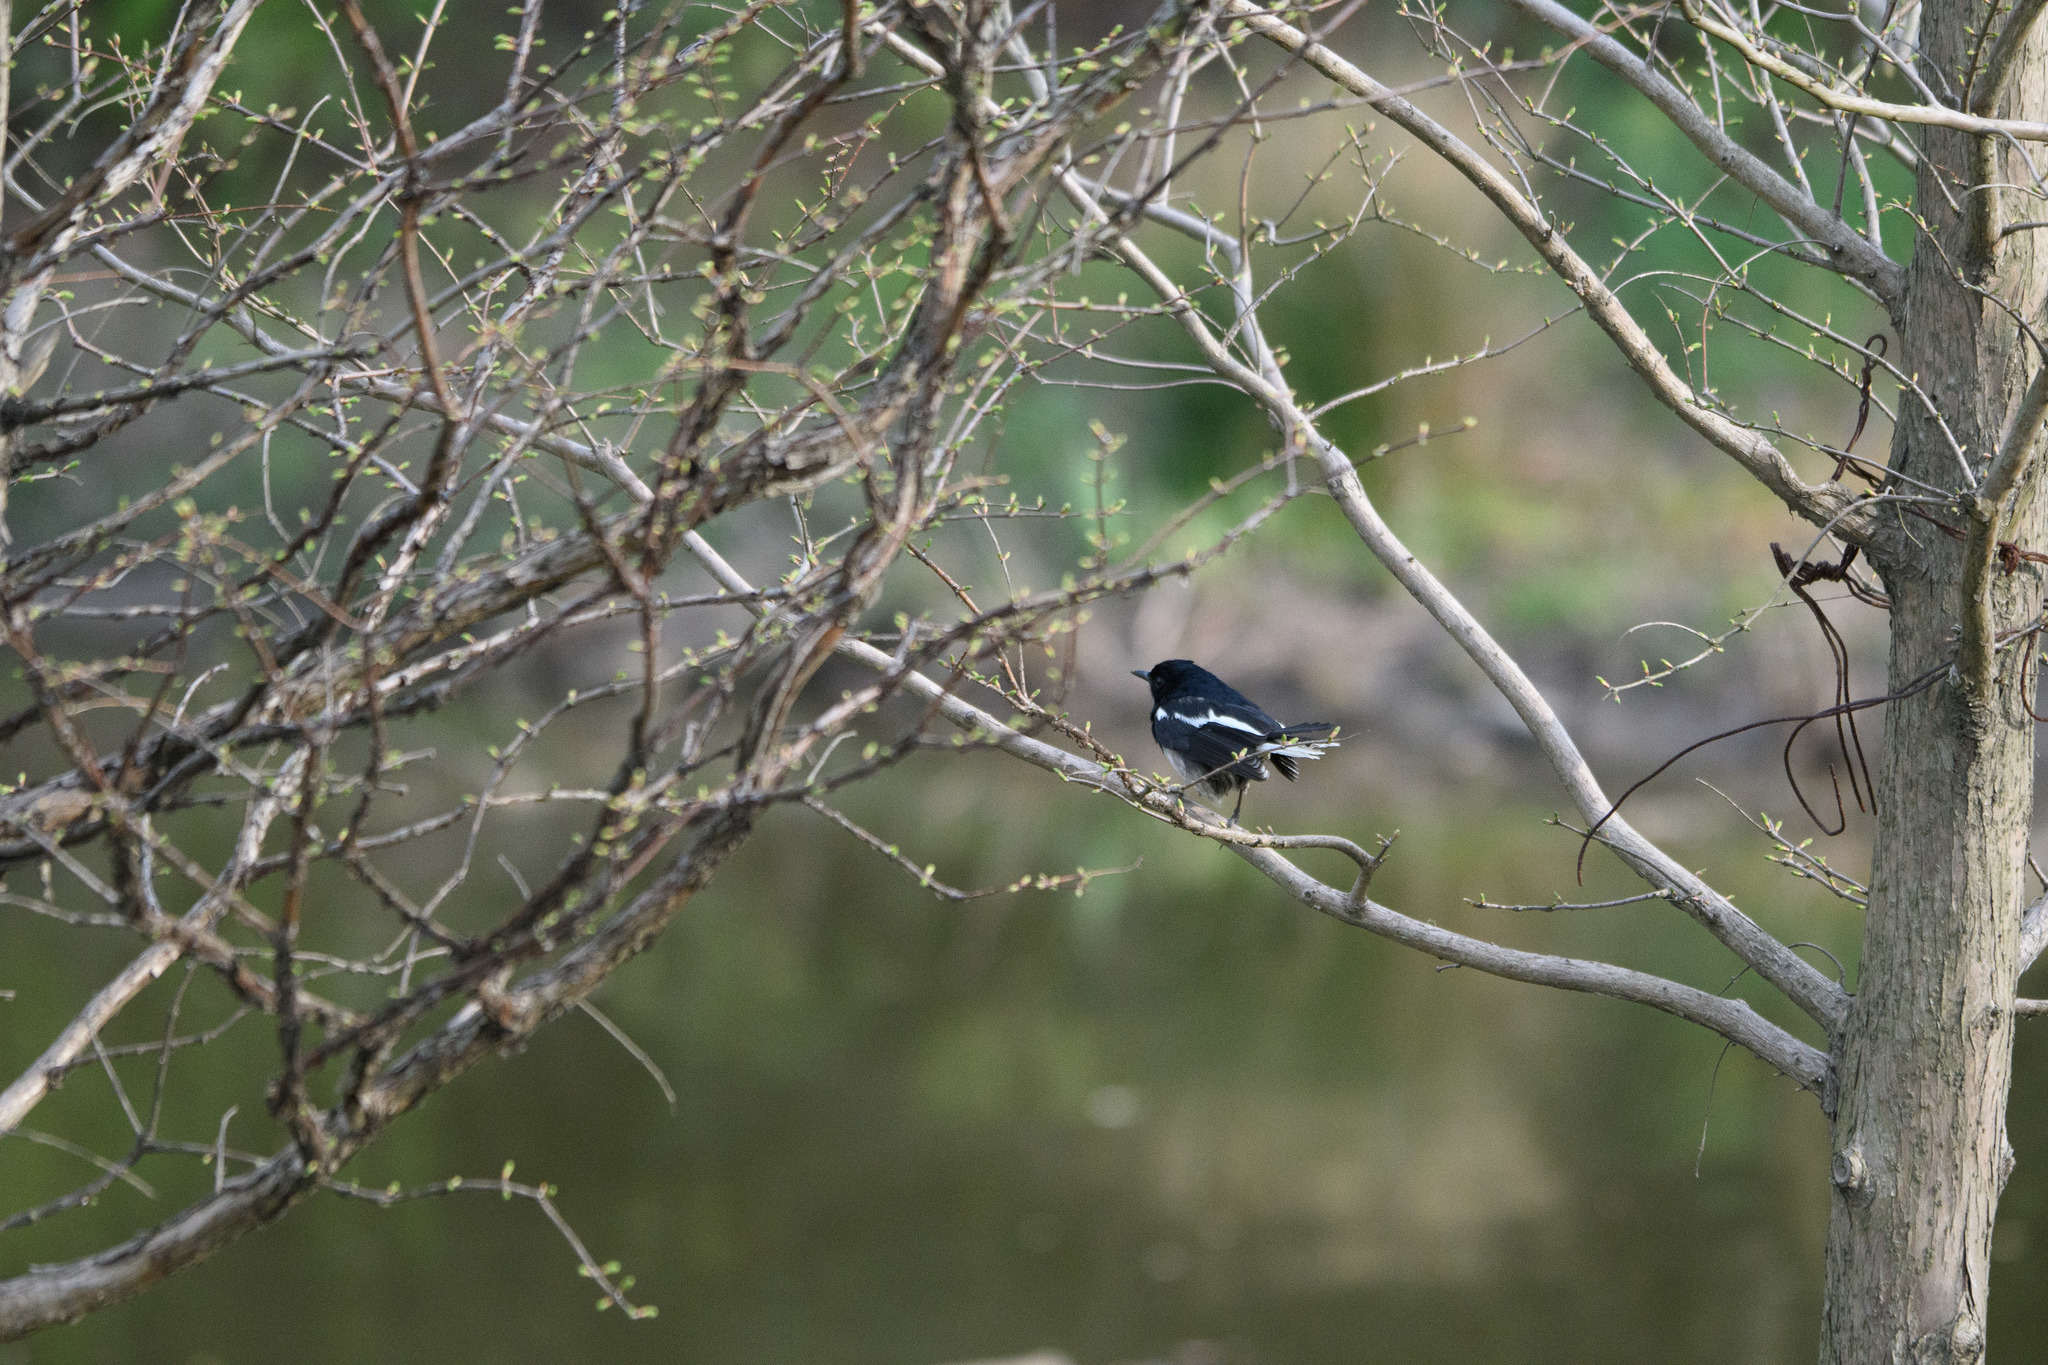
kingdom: Animalia
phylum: Chordata
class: Aves
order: Passeriformes
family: Muscicapidae
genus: Copsychus
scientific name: Copsychus saularis
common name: Oriental magpie-robin
